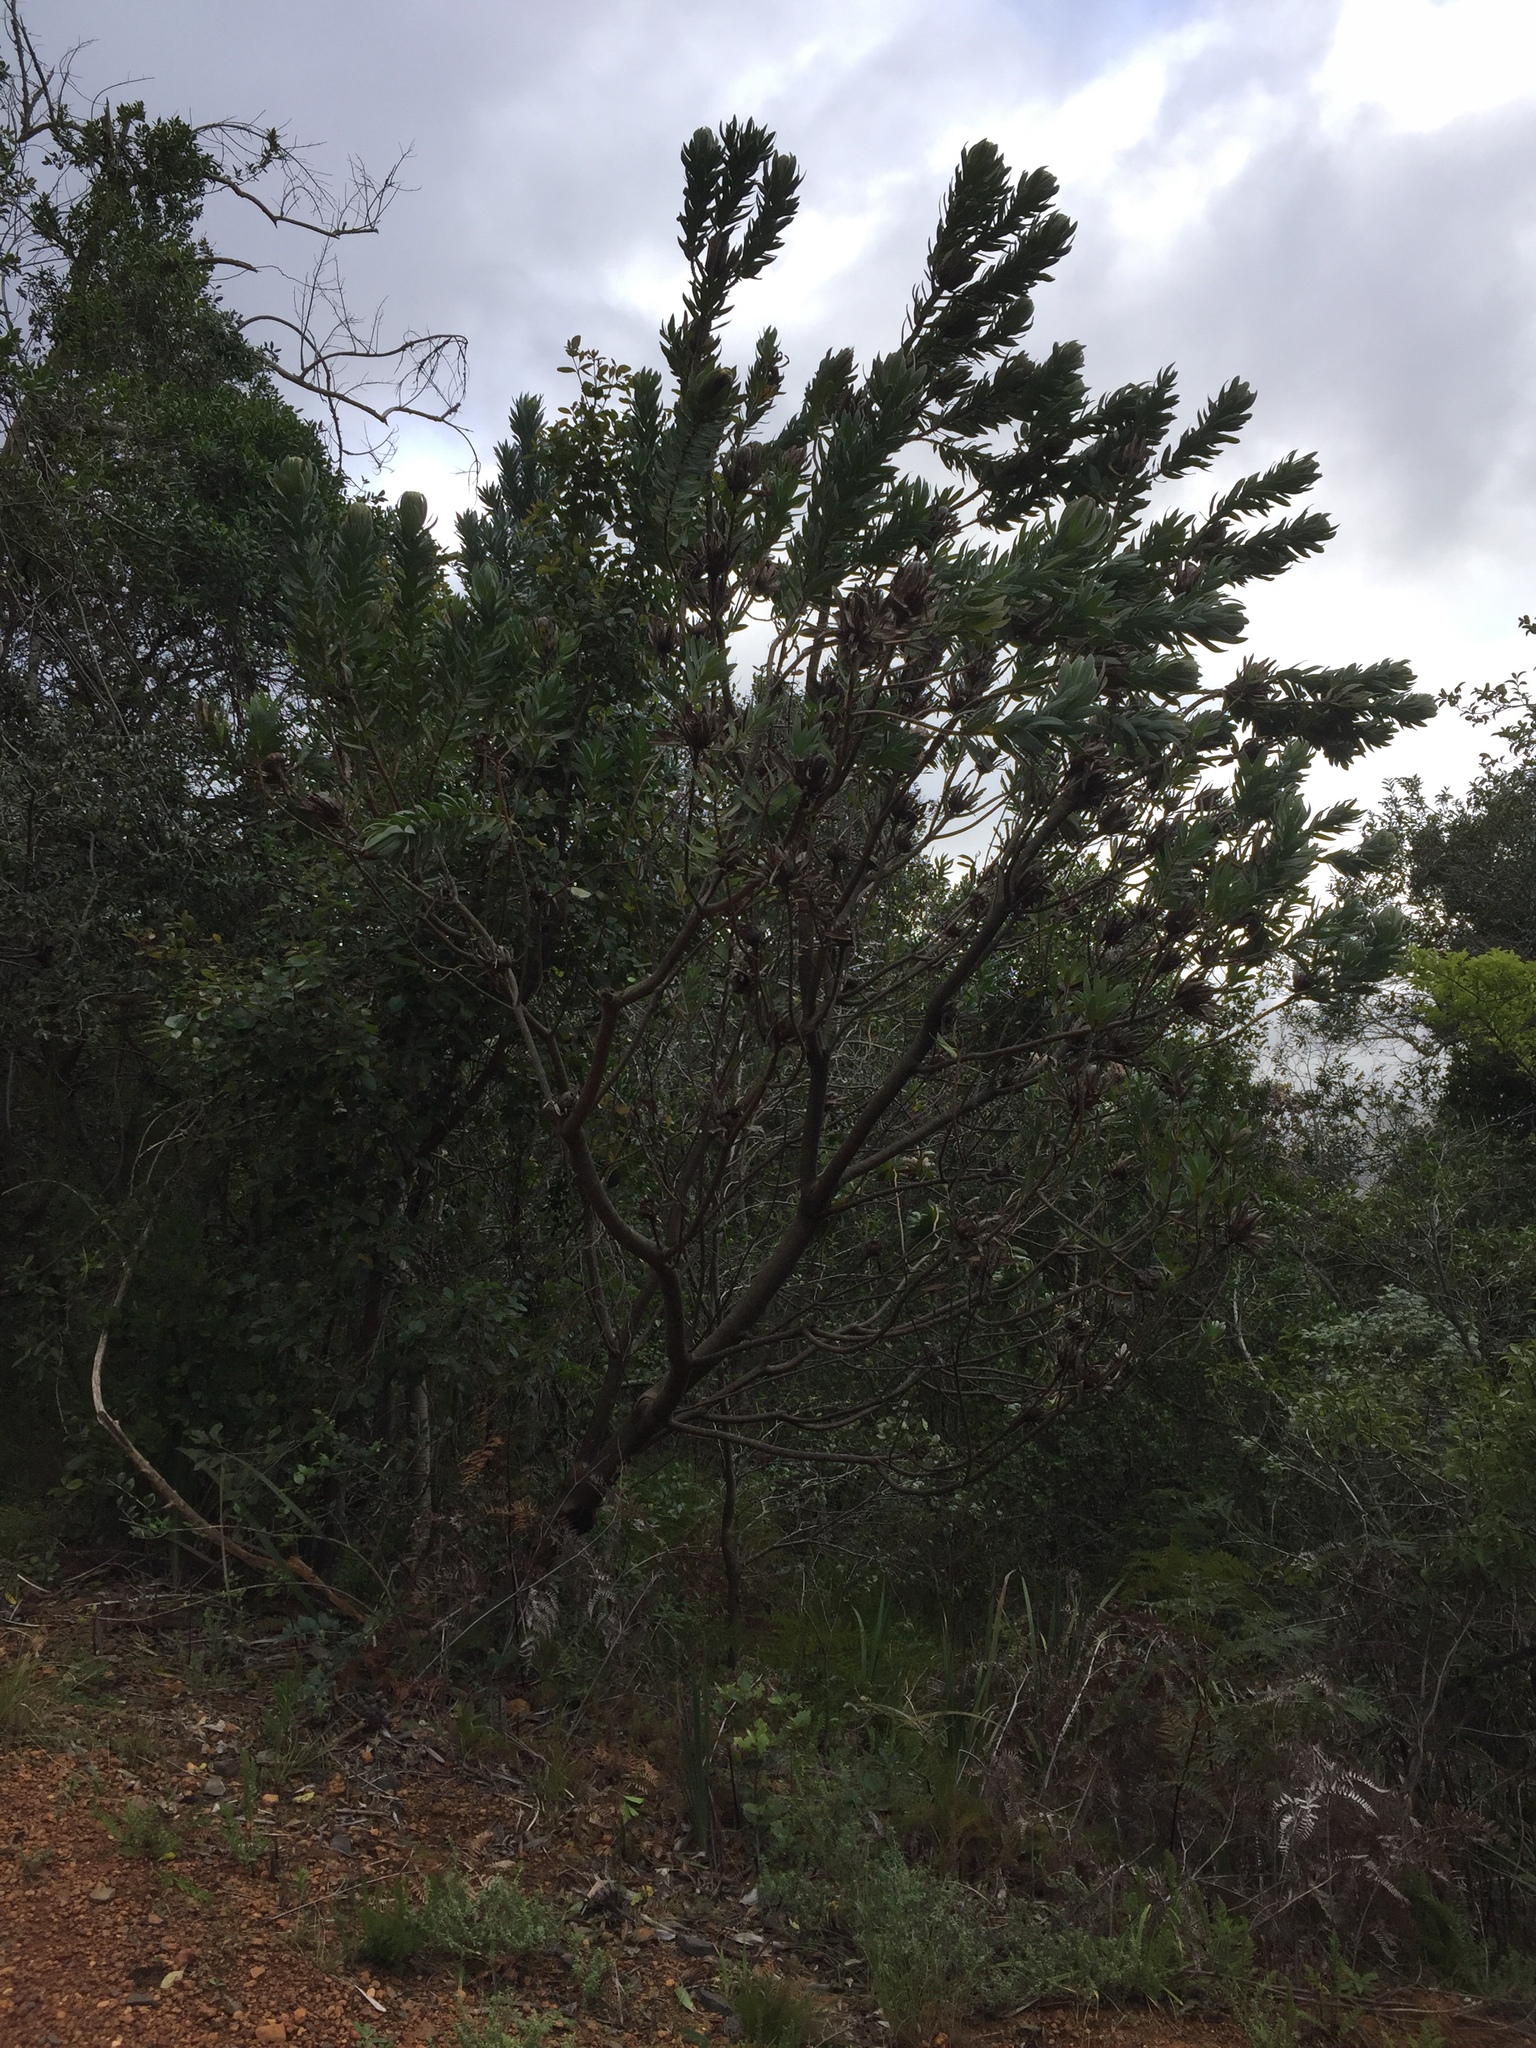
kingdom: Plantae
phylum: Tracheophyta
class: Magnoliopsida
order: Proteales
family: Proteaceae
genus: Protea
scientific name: Protea coronata
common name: Green sugarbush
